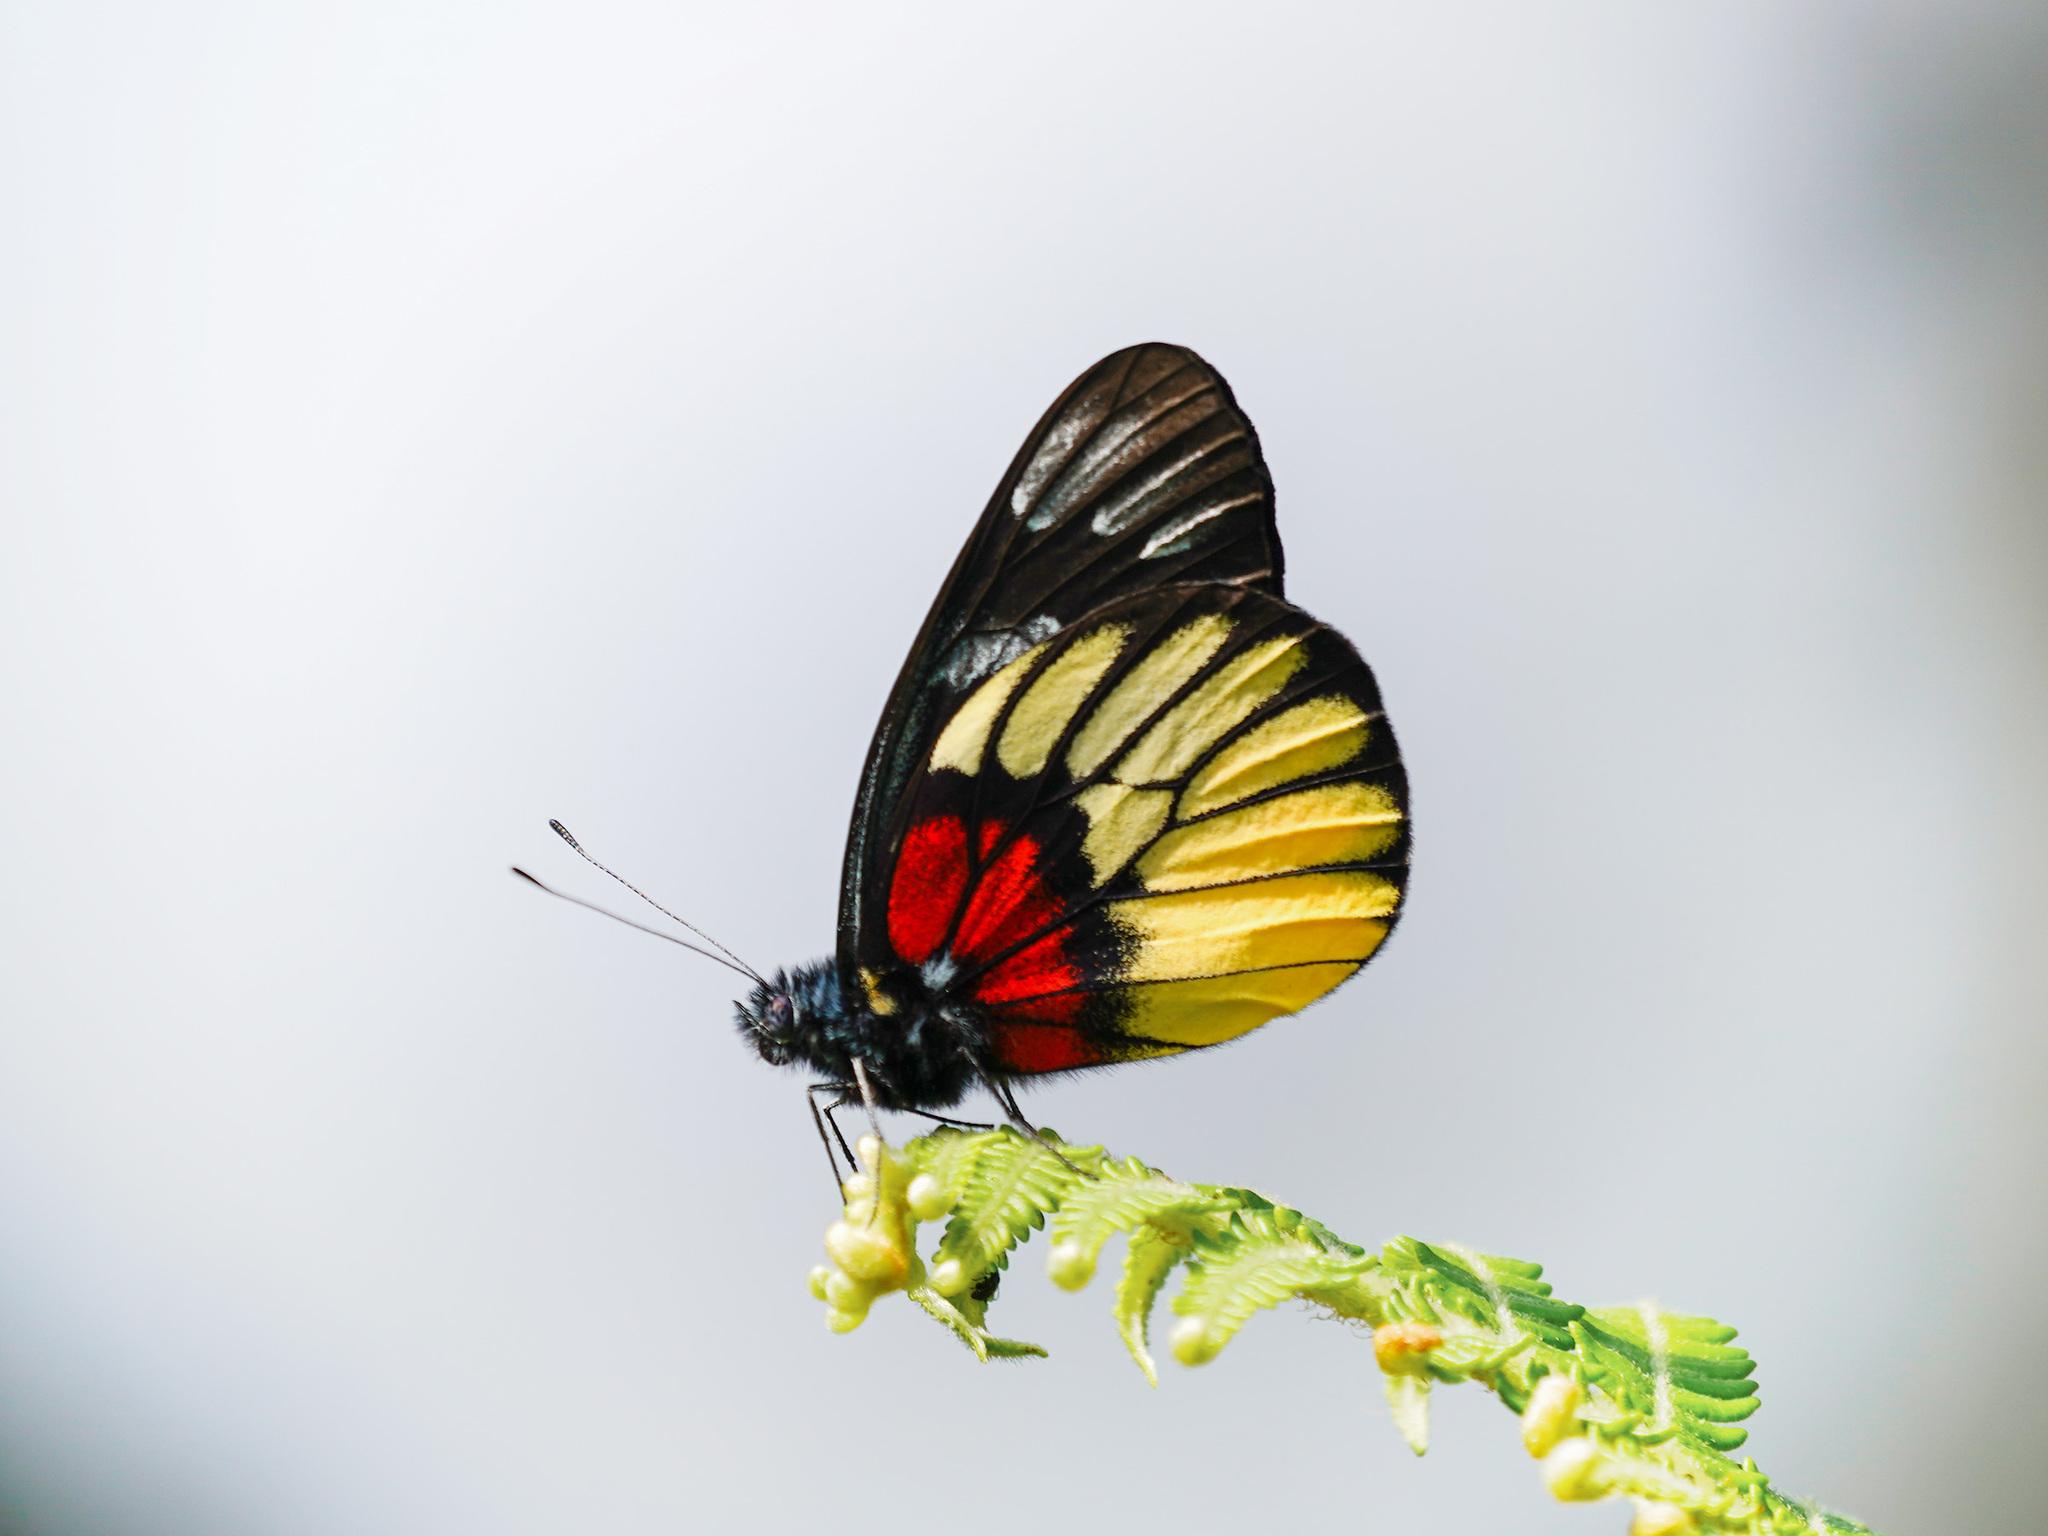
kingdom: Animalia
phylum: Arthropoda
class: Insecta
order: Lepidoptera
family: Pieridae
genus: Delias
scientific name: Delias ninus
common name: Malayan jezebel
